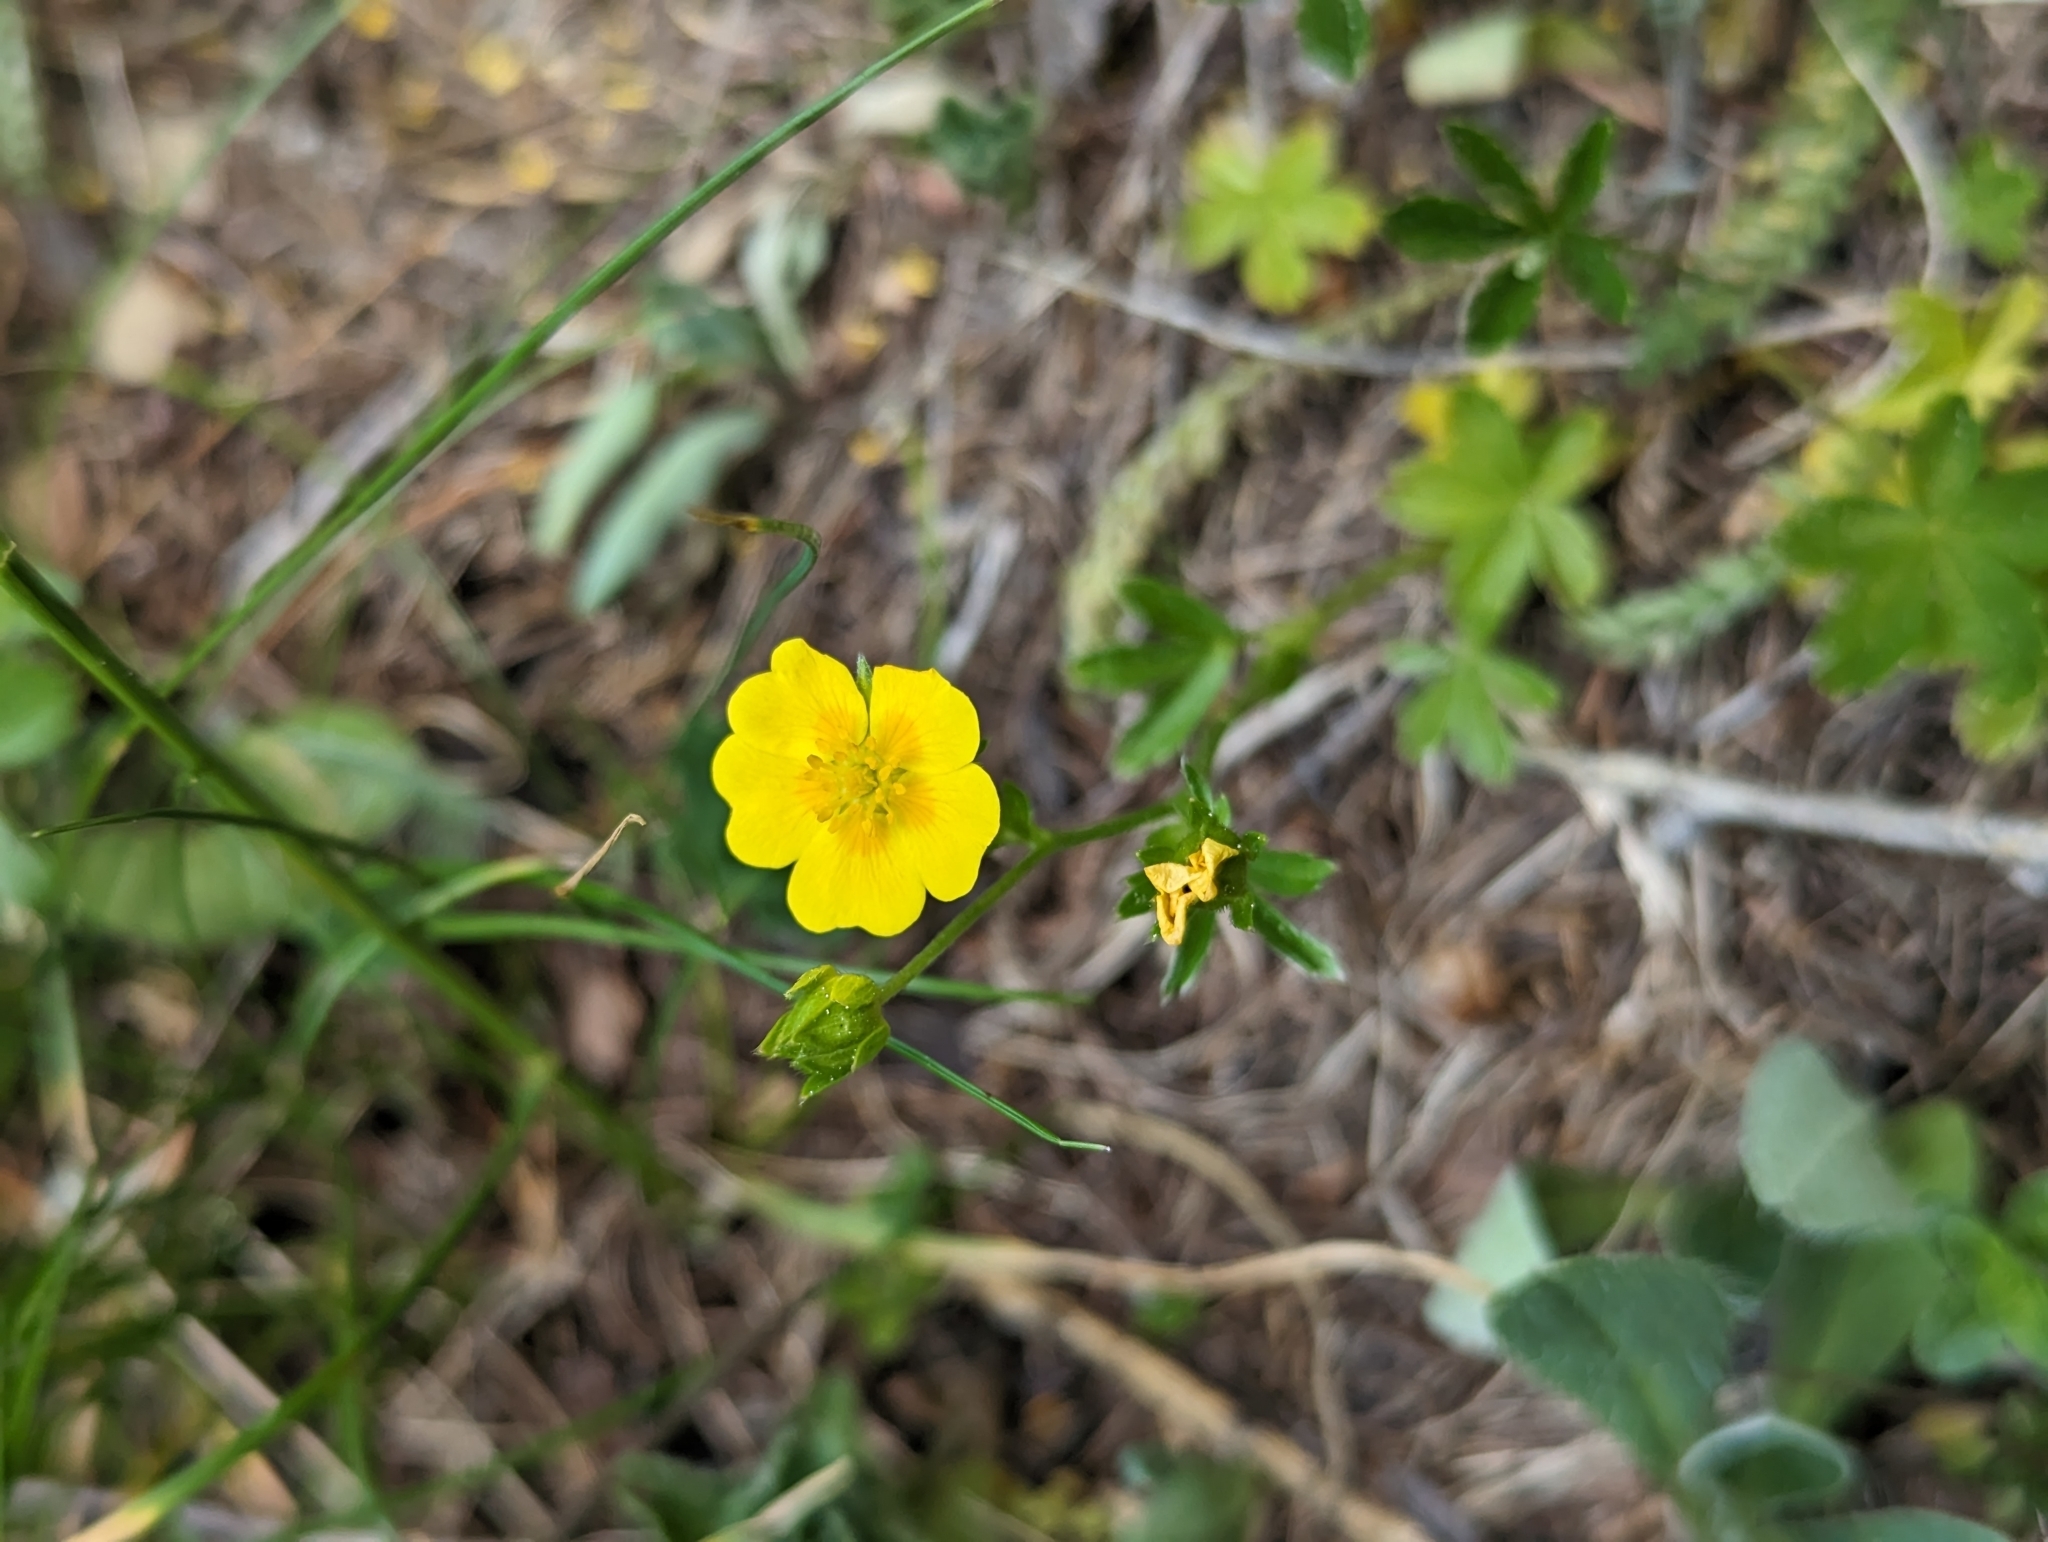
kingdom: Plantae
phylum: Tracheophyta
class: Magnoliopsida
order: Rosales
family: Rosaceae
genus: Potentilla
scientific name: Potentilla aurea
